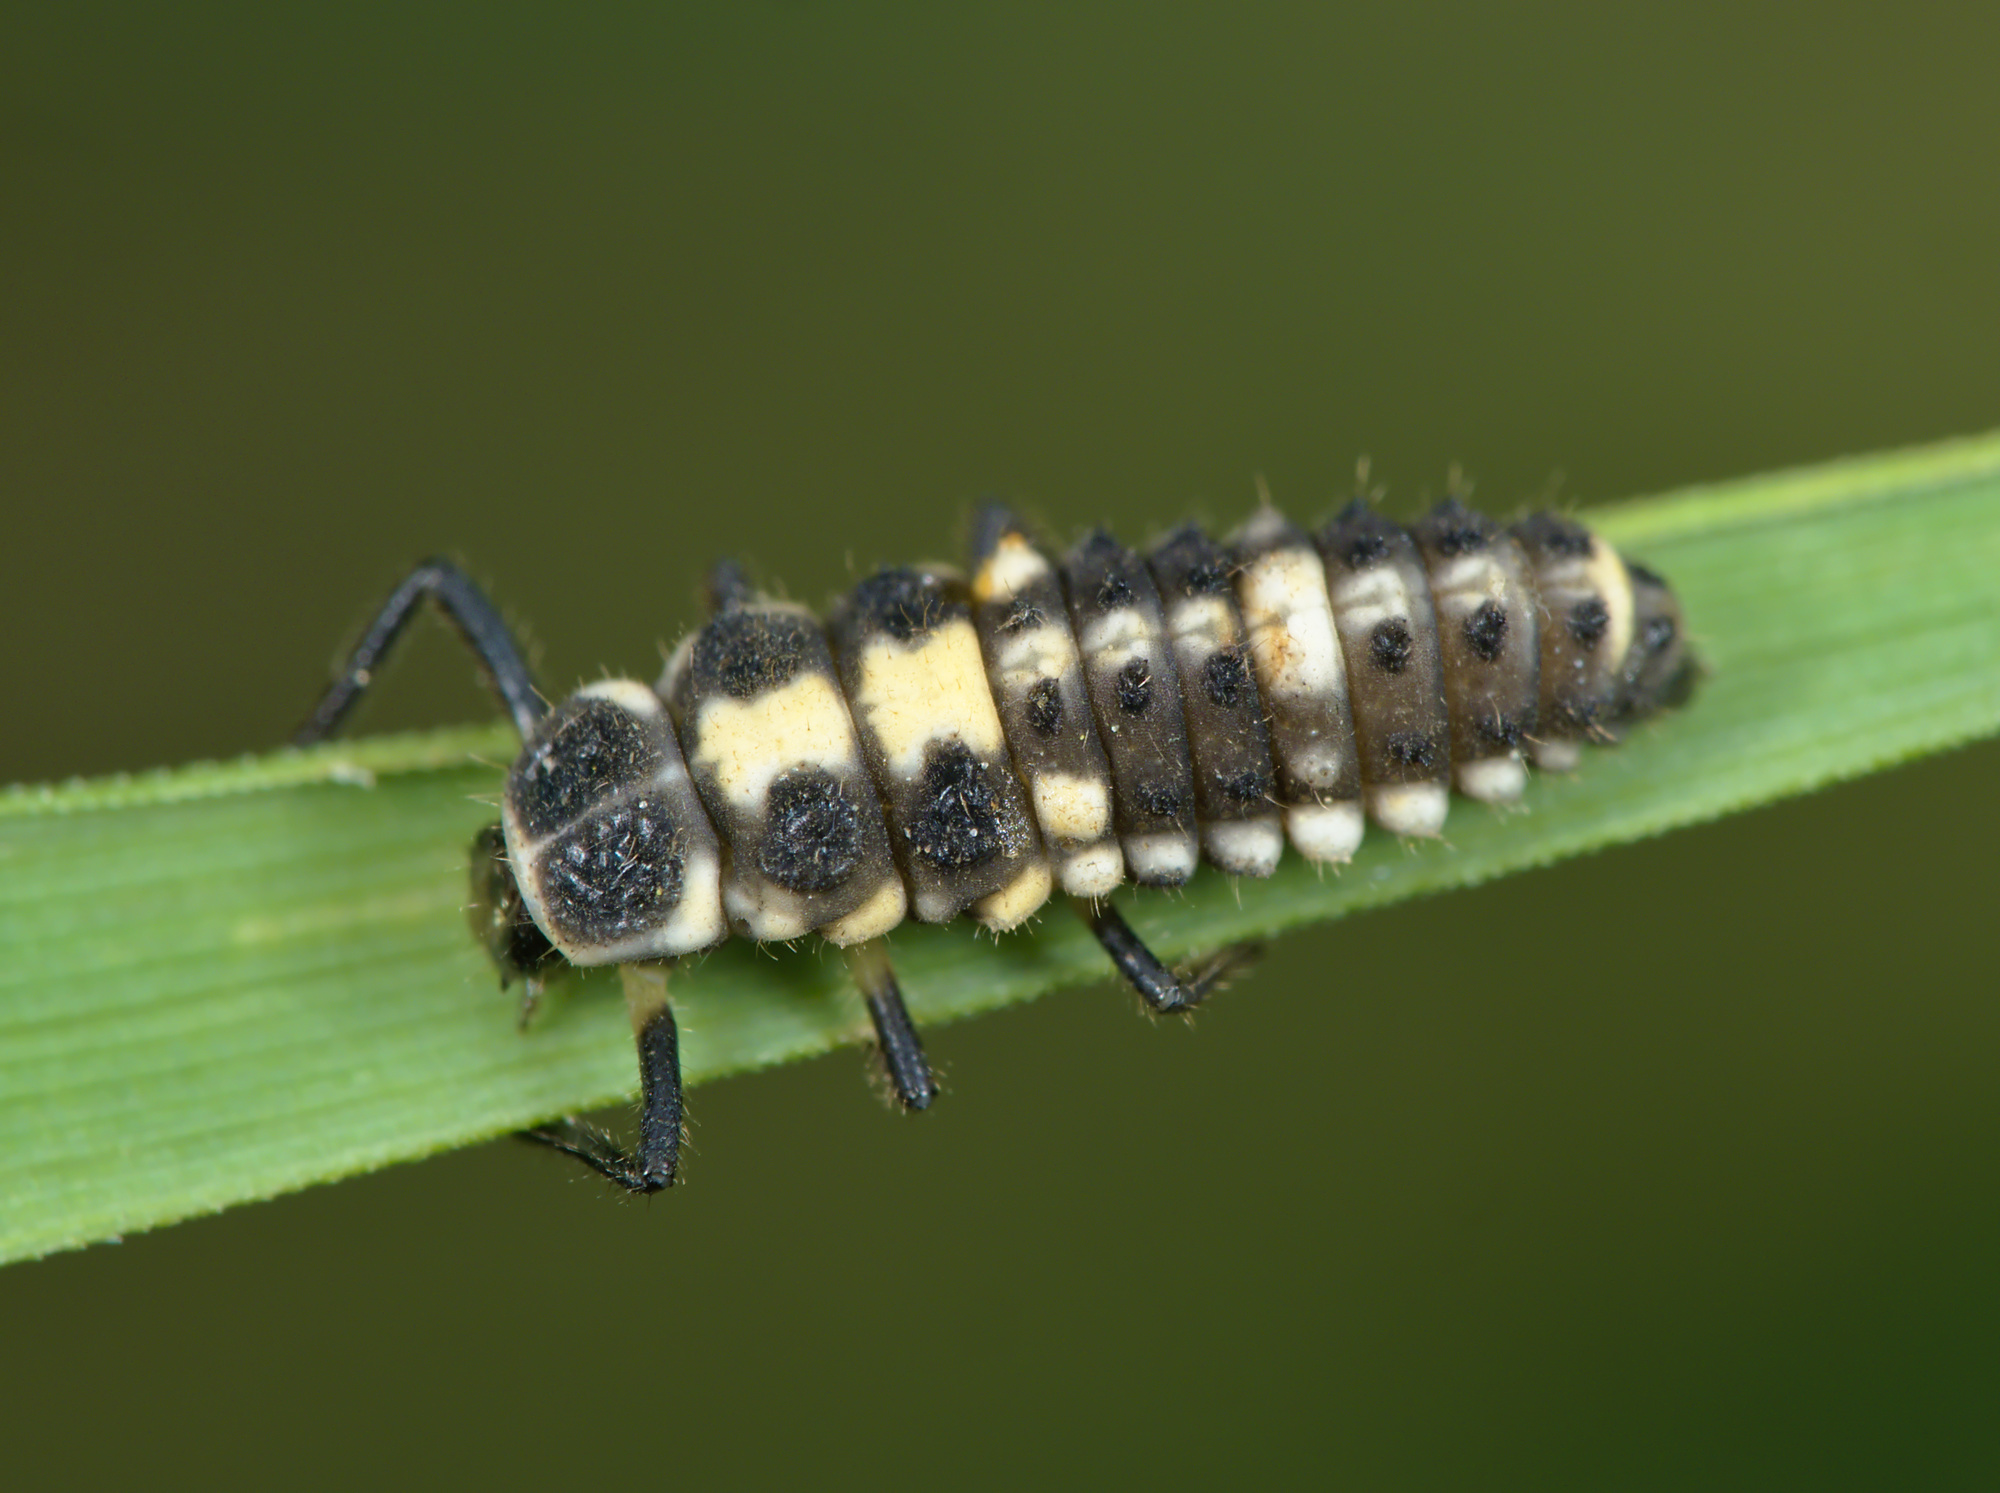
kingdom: Animalia
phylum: Arthropoda
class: Insecta
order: Coleoptera
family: Coccinellidae
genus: Propylaea
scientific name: Propylaea quatuordecimpunctata
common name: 14-spotted ladybird beetle
